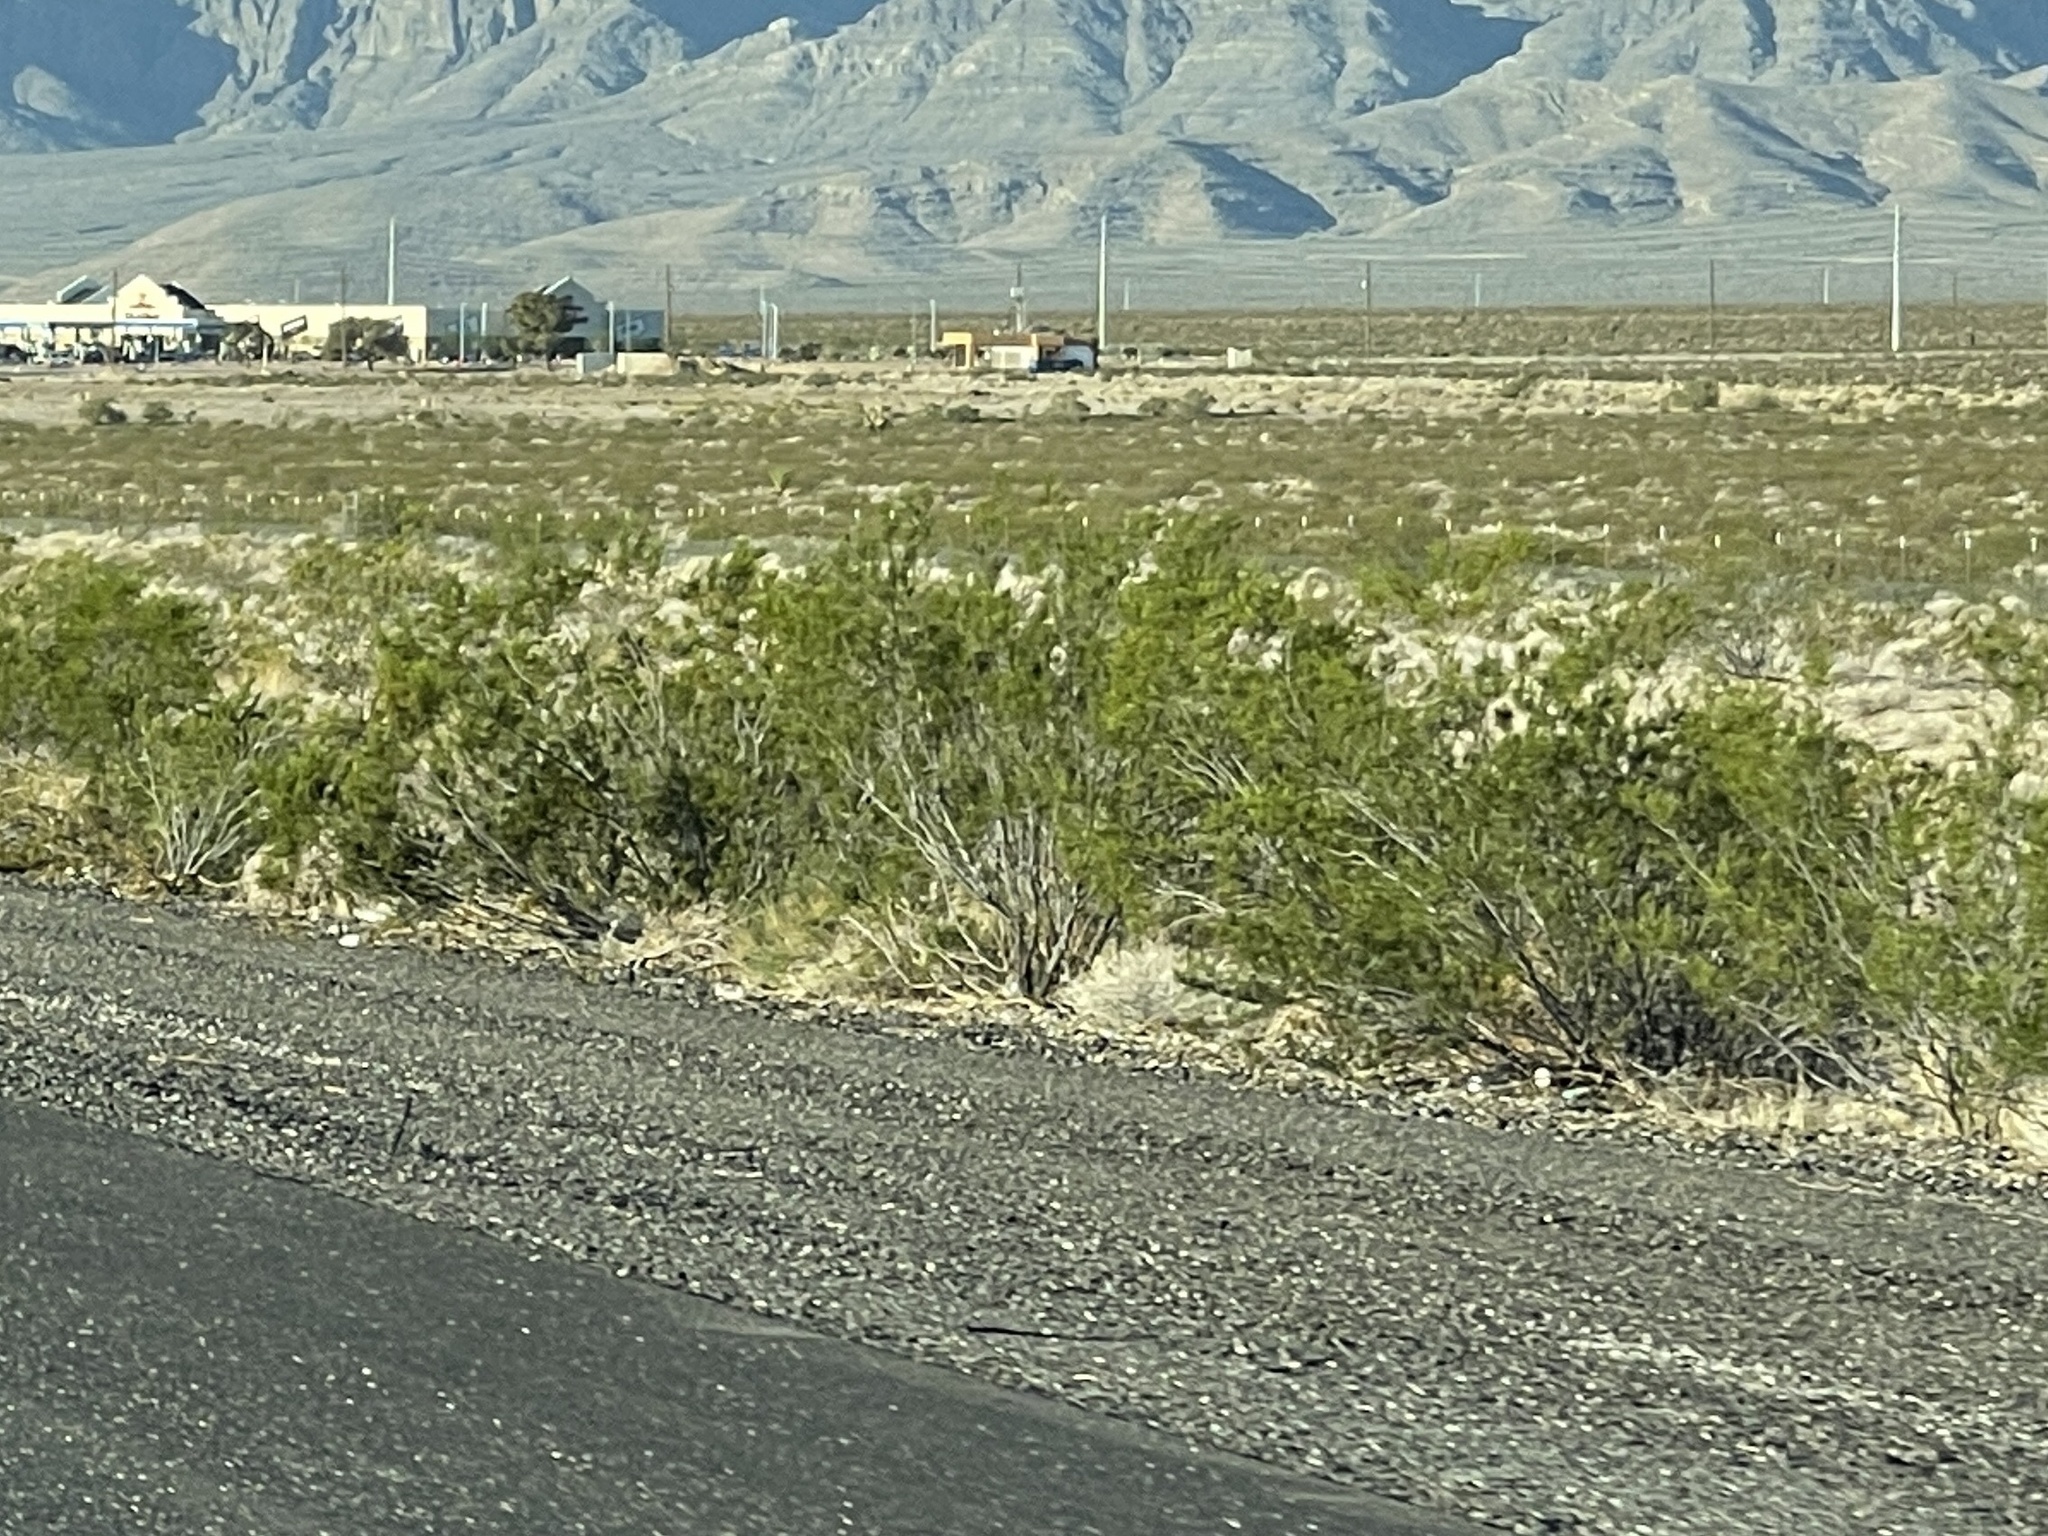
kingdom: Plantae
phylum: Tracheophyta
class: Magnoliopsida
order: Zygophyllales
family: Zygophyllaceae
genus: Larrea
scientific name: Larrea tridentata
